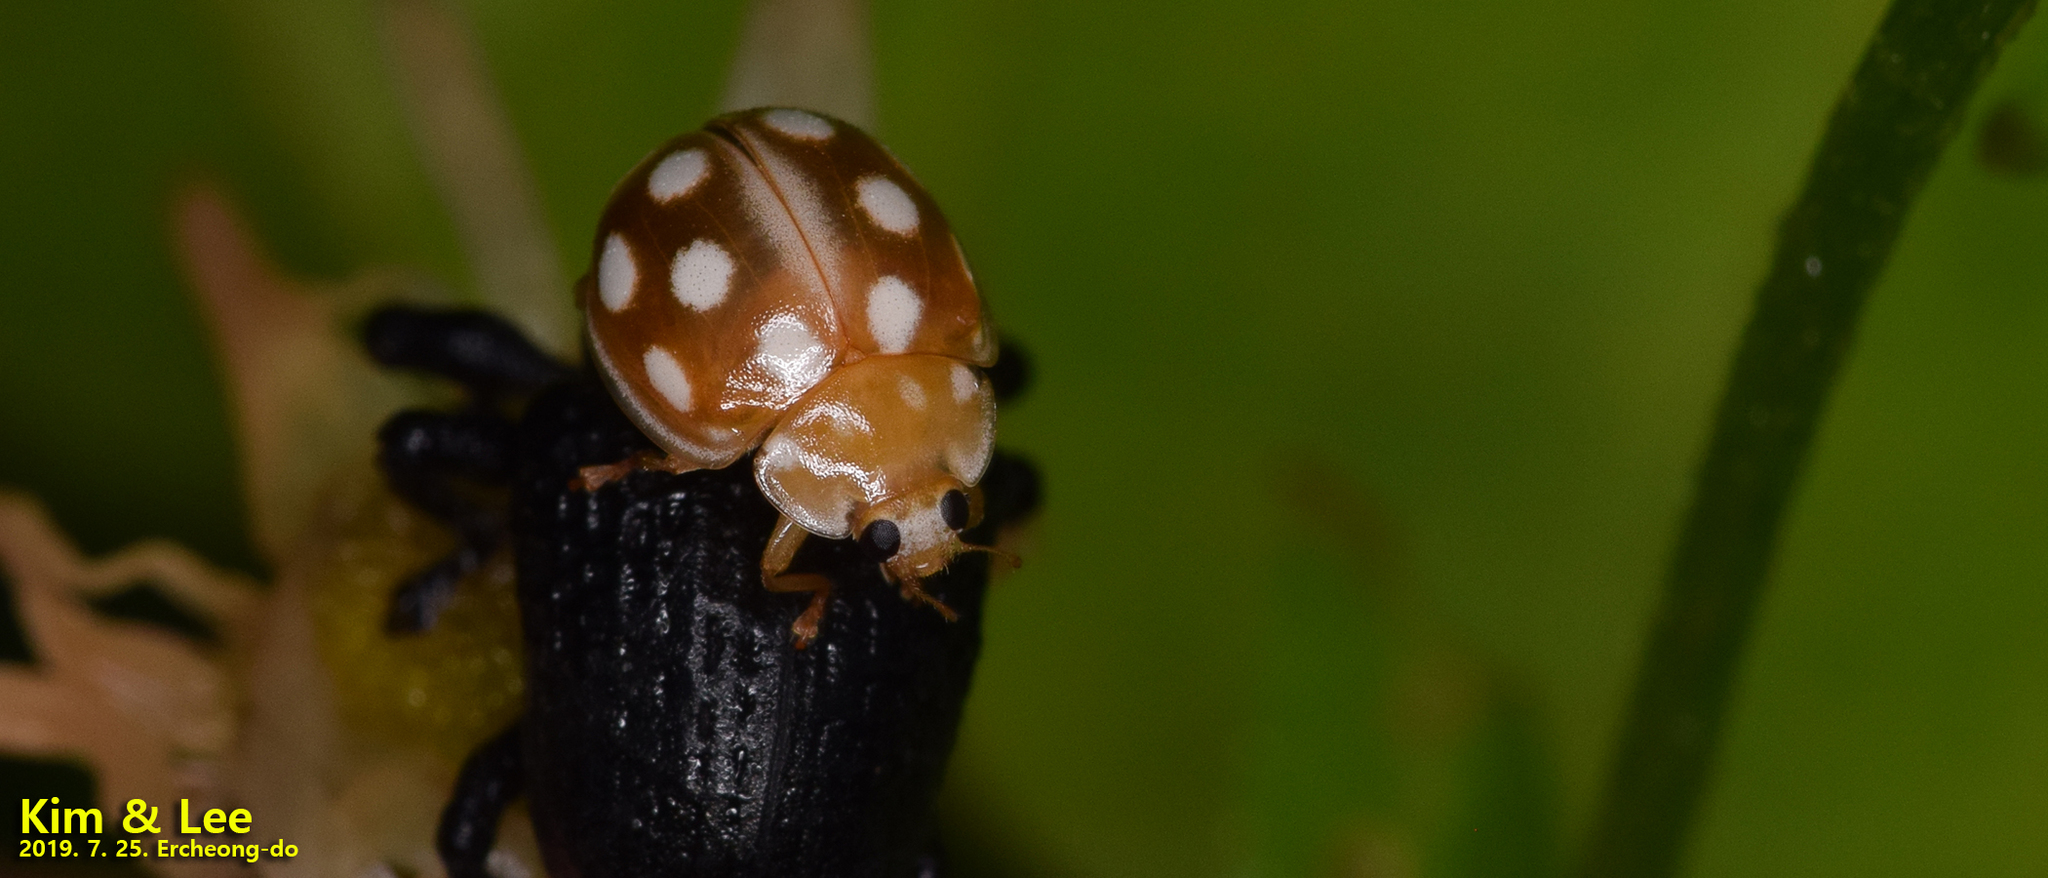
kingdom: Animalia
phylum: Arthropoda
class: Insecta
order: Coleoptera
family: Coccinellidae
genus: Calvia
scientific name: Calvia muiri
